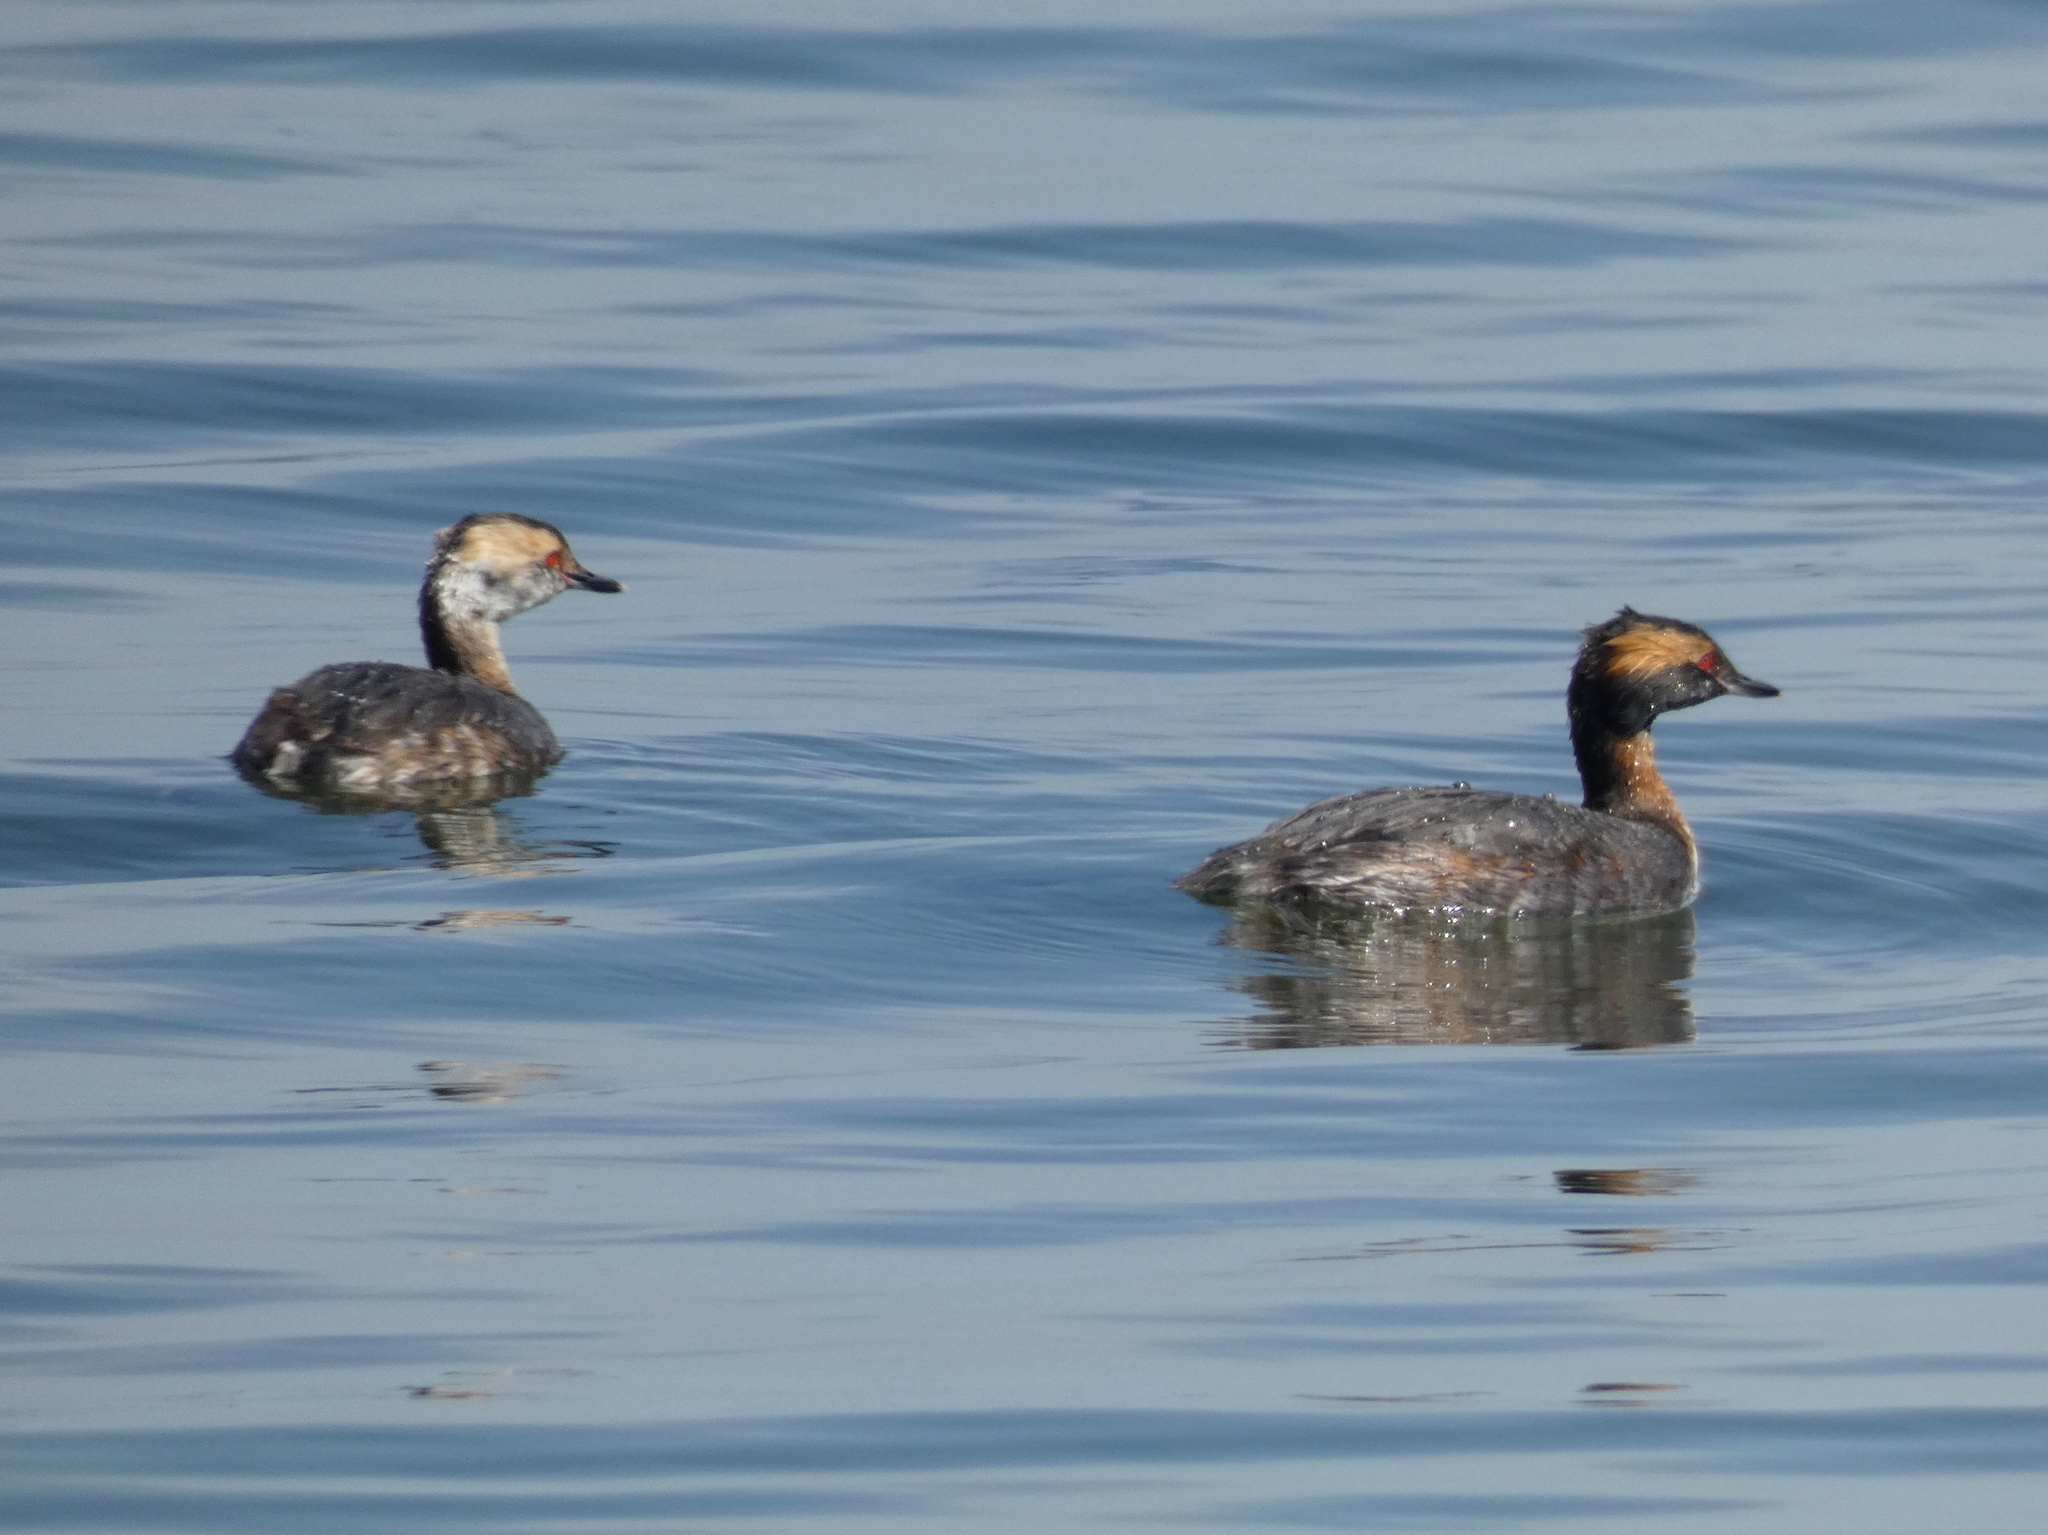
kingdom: Animalia
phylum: Chordata
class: Aves
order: Podicipediformes
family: Podicipedidae
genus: Podiceps
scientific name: Podiceps auritus
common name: Horned grebe
